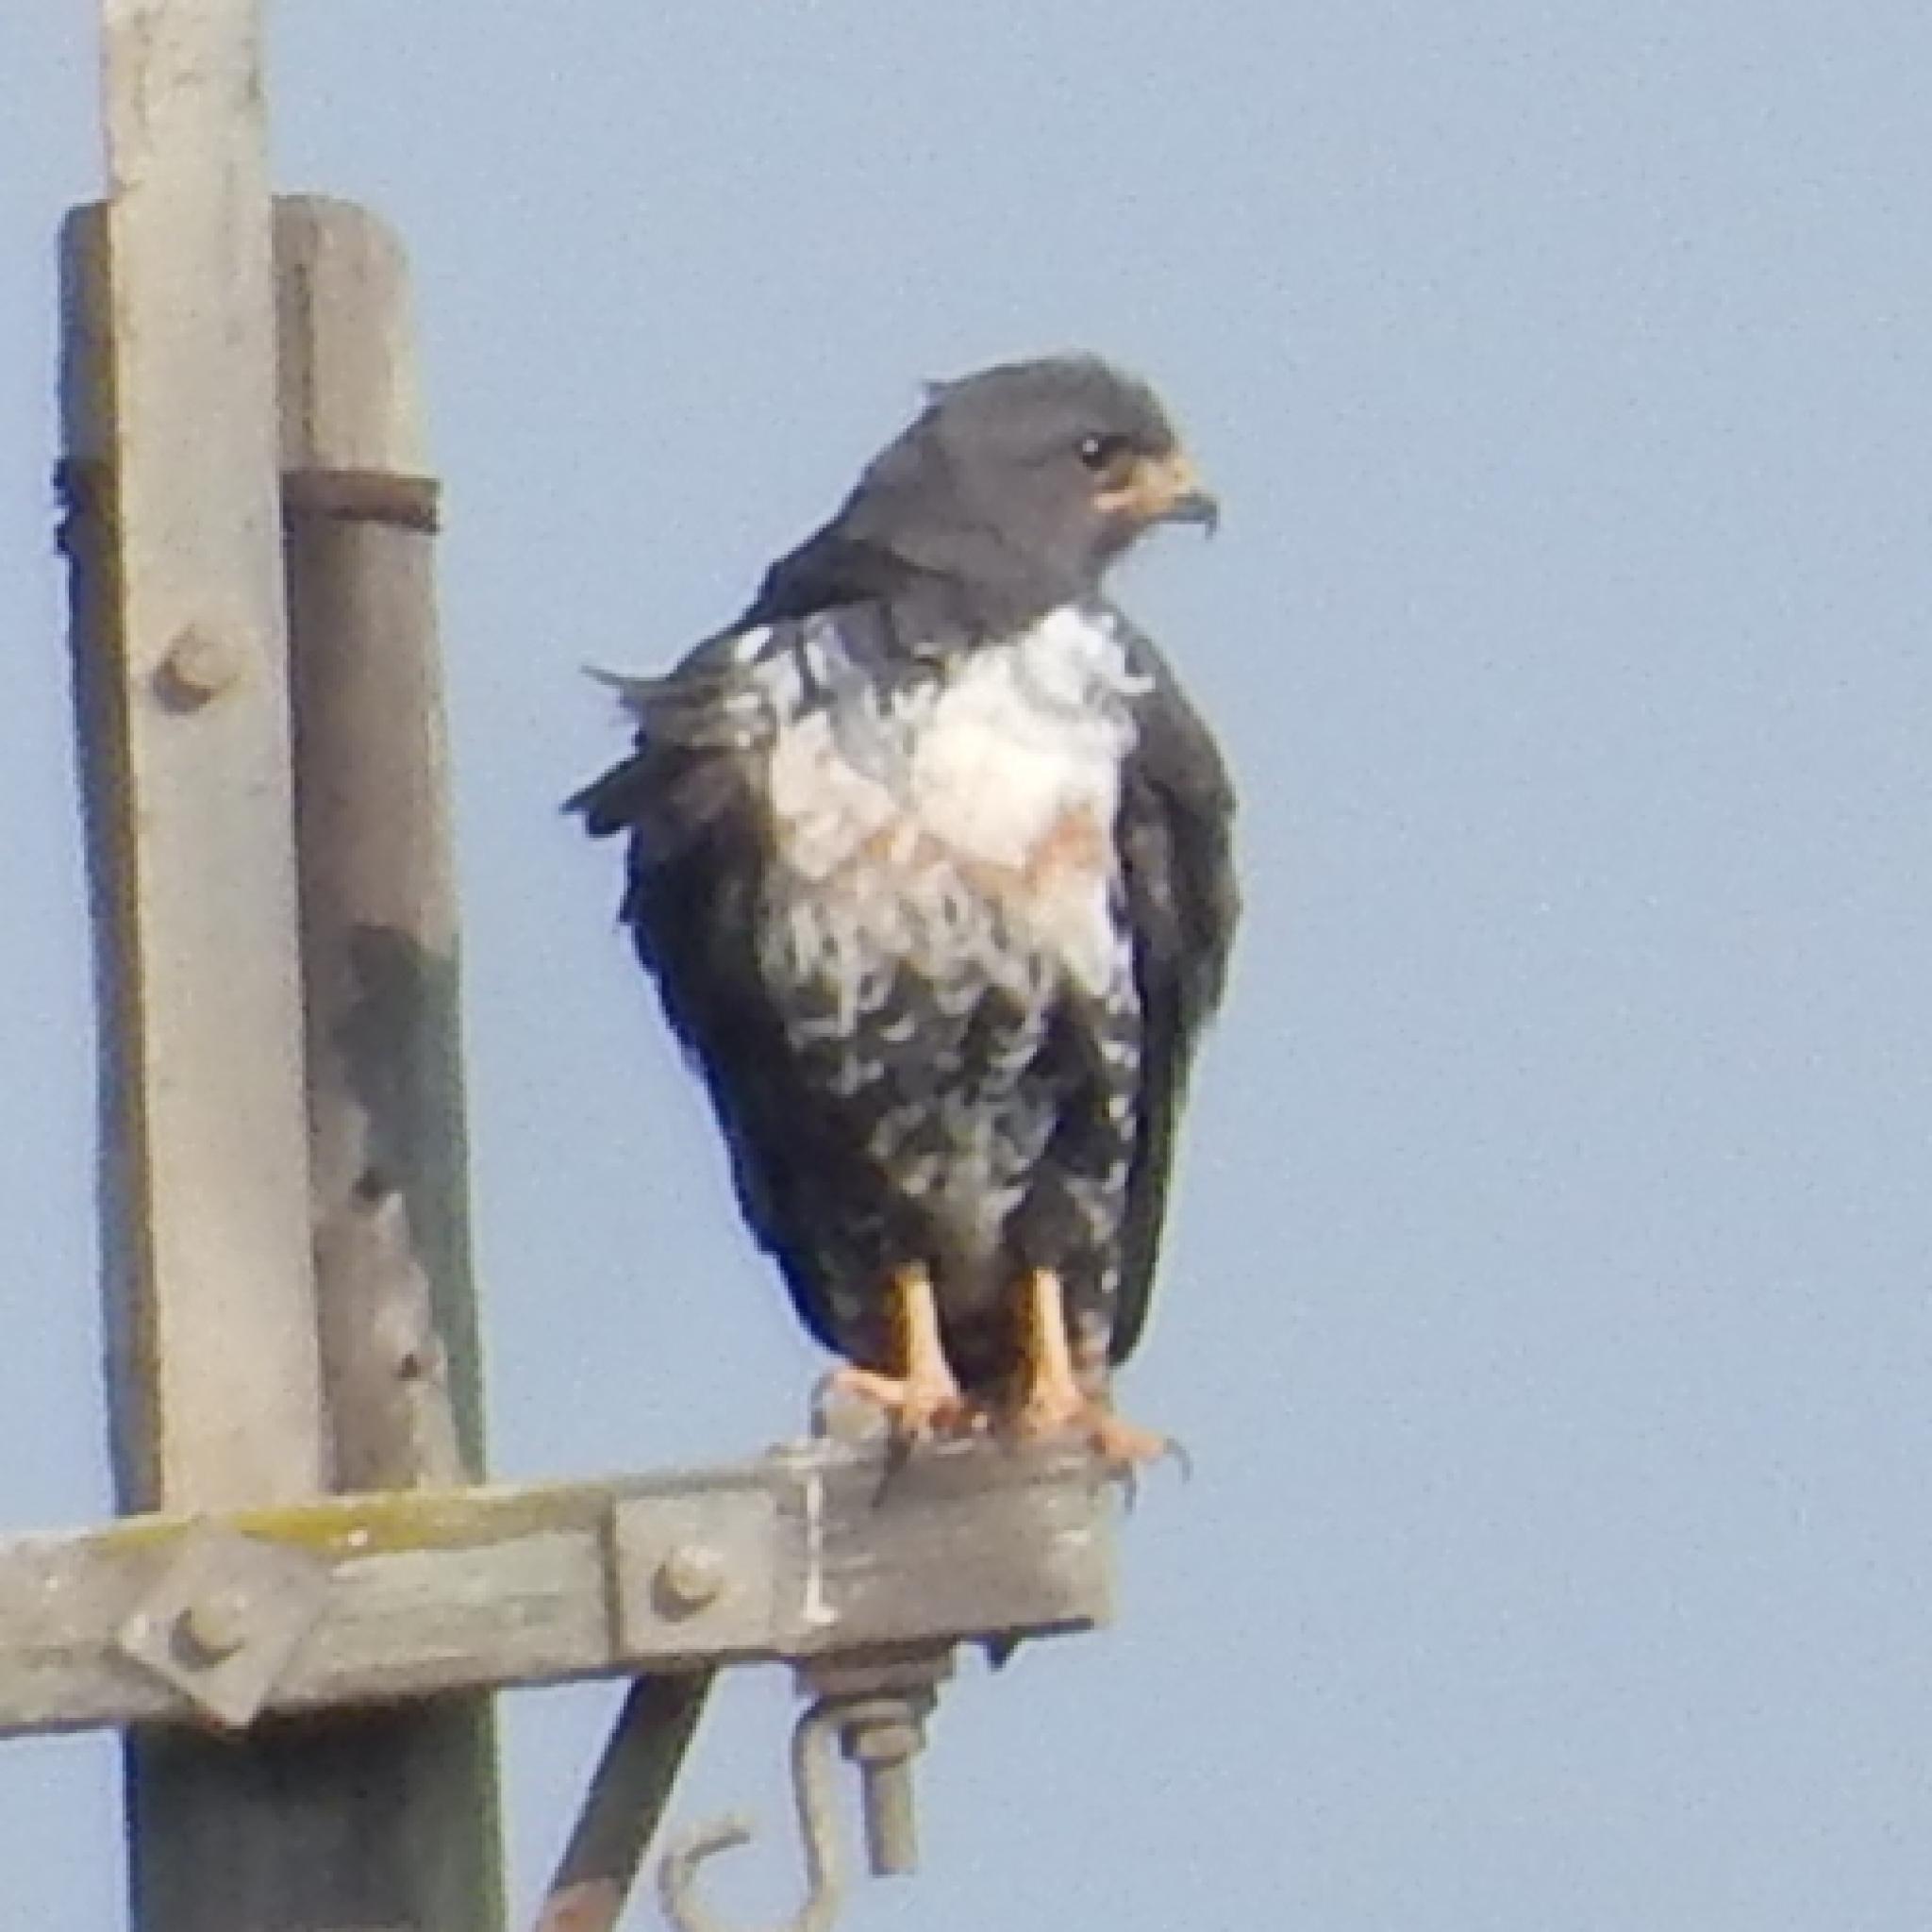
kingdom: Animalia
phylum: Chordata
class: Aves
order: Accipitriformes
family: Accipitridae
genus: Buteo
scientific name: Buteo rufofuscus
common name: Jackal buzzard
